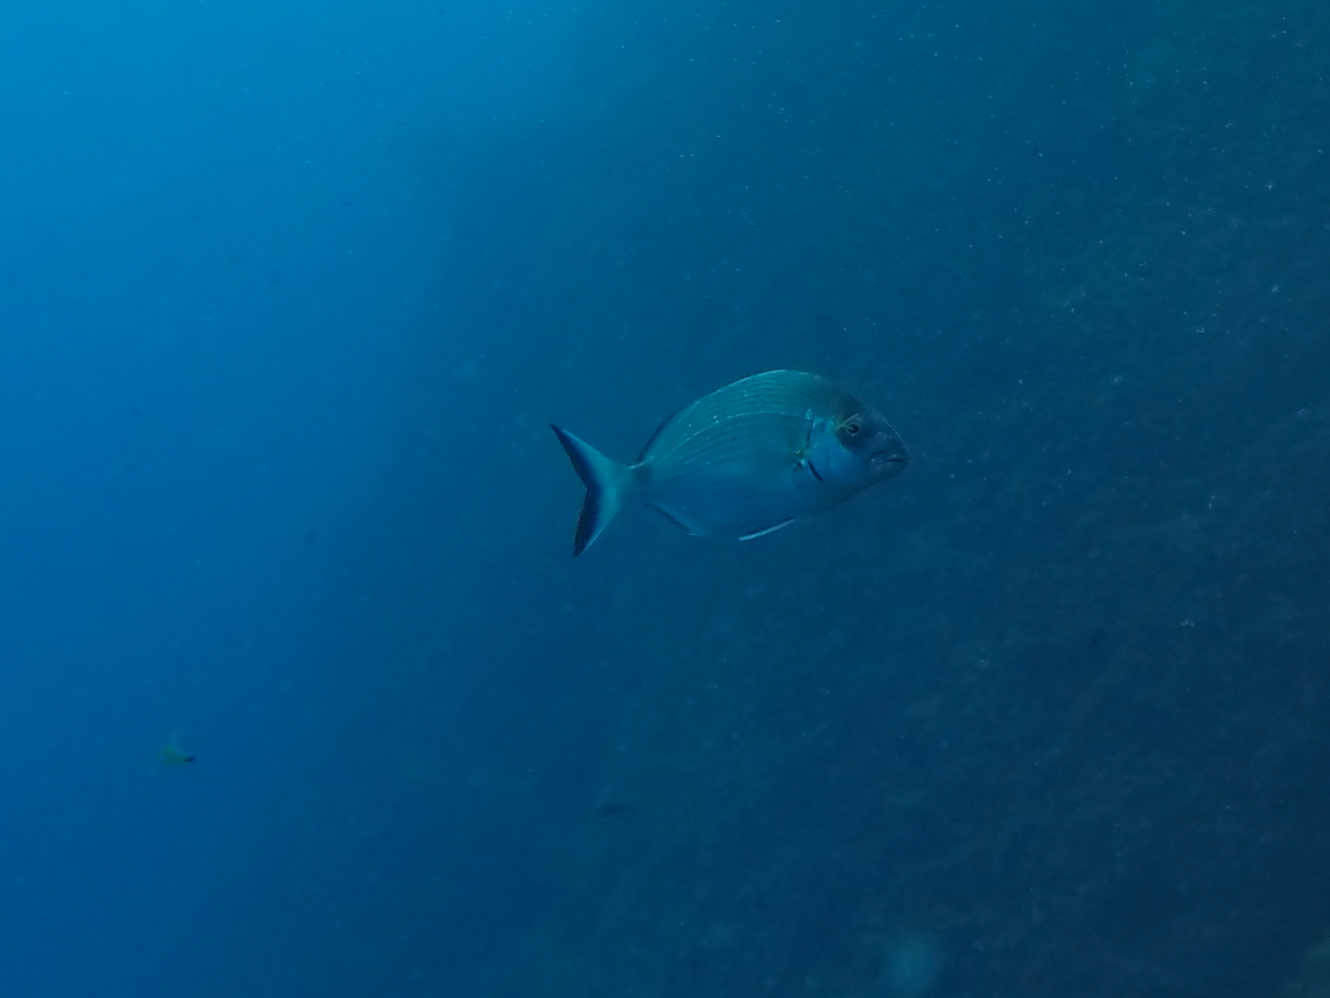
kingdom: Animalia
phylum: Chordata
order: Perciformes
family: Sparidae
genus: Diplodus
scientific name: Diplodus sargus
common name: White seabream
